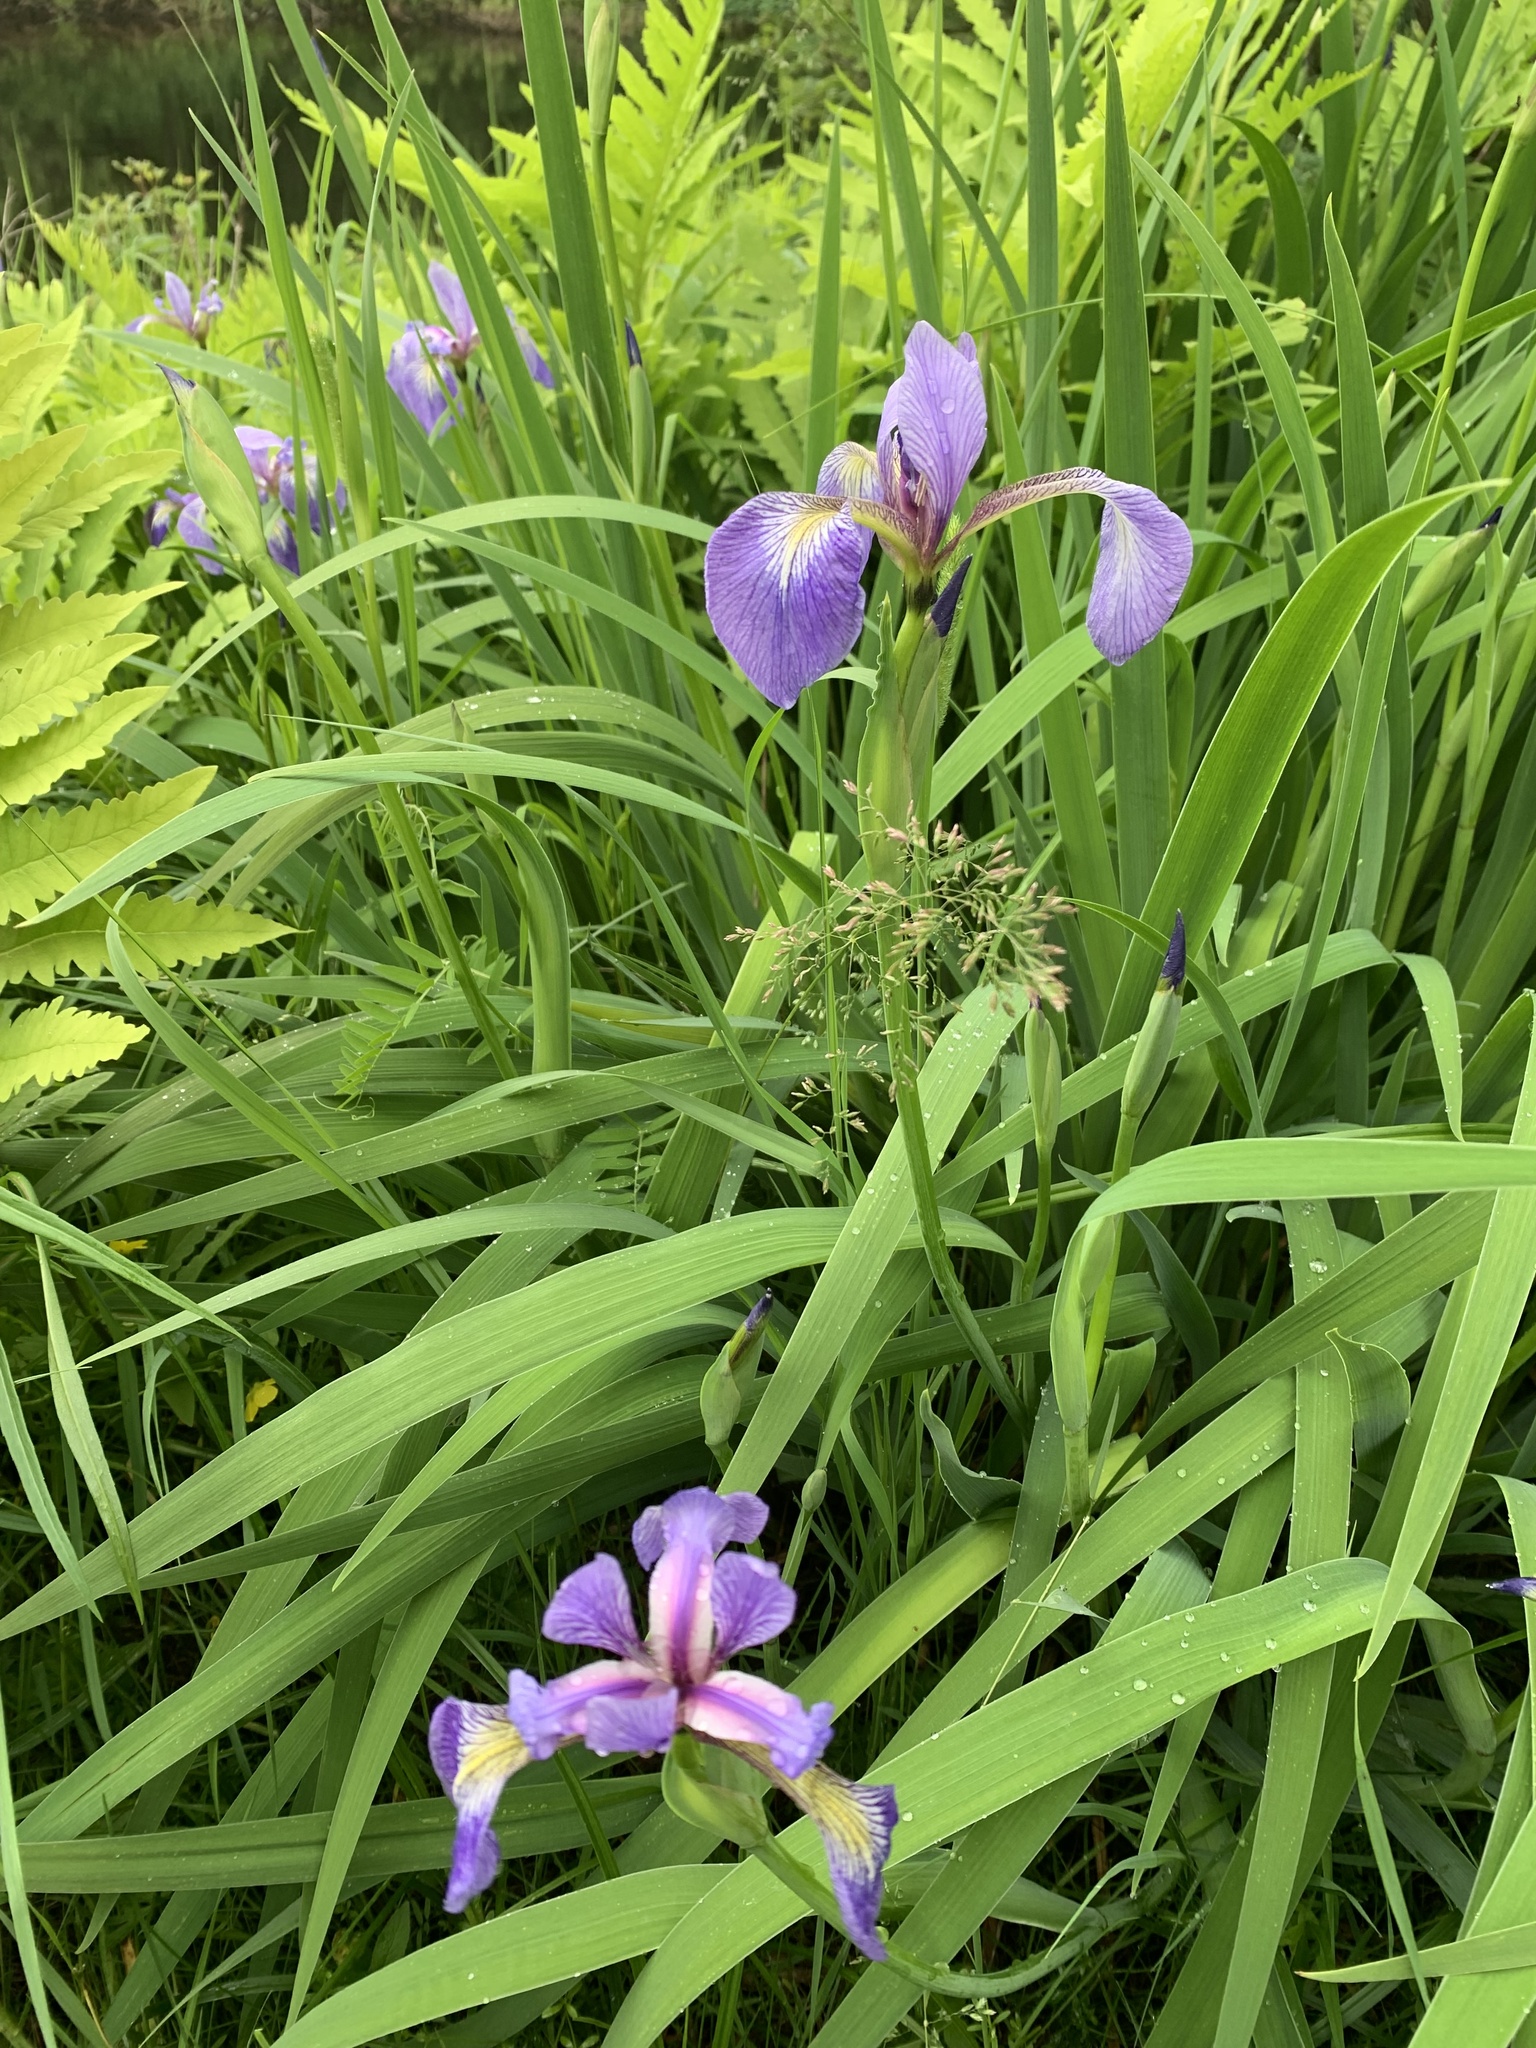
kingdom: Plantae
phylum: Tracheophyta
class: Liliopsida
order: Asparagales
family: Iridaceae
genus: Iris
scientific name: Iris versicolor
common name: Purple iris
